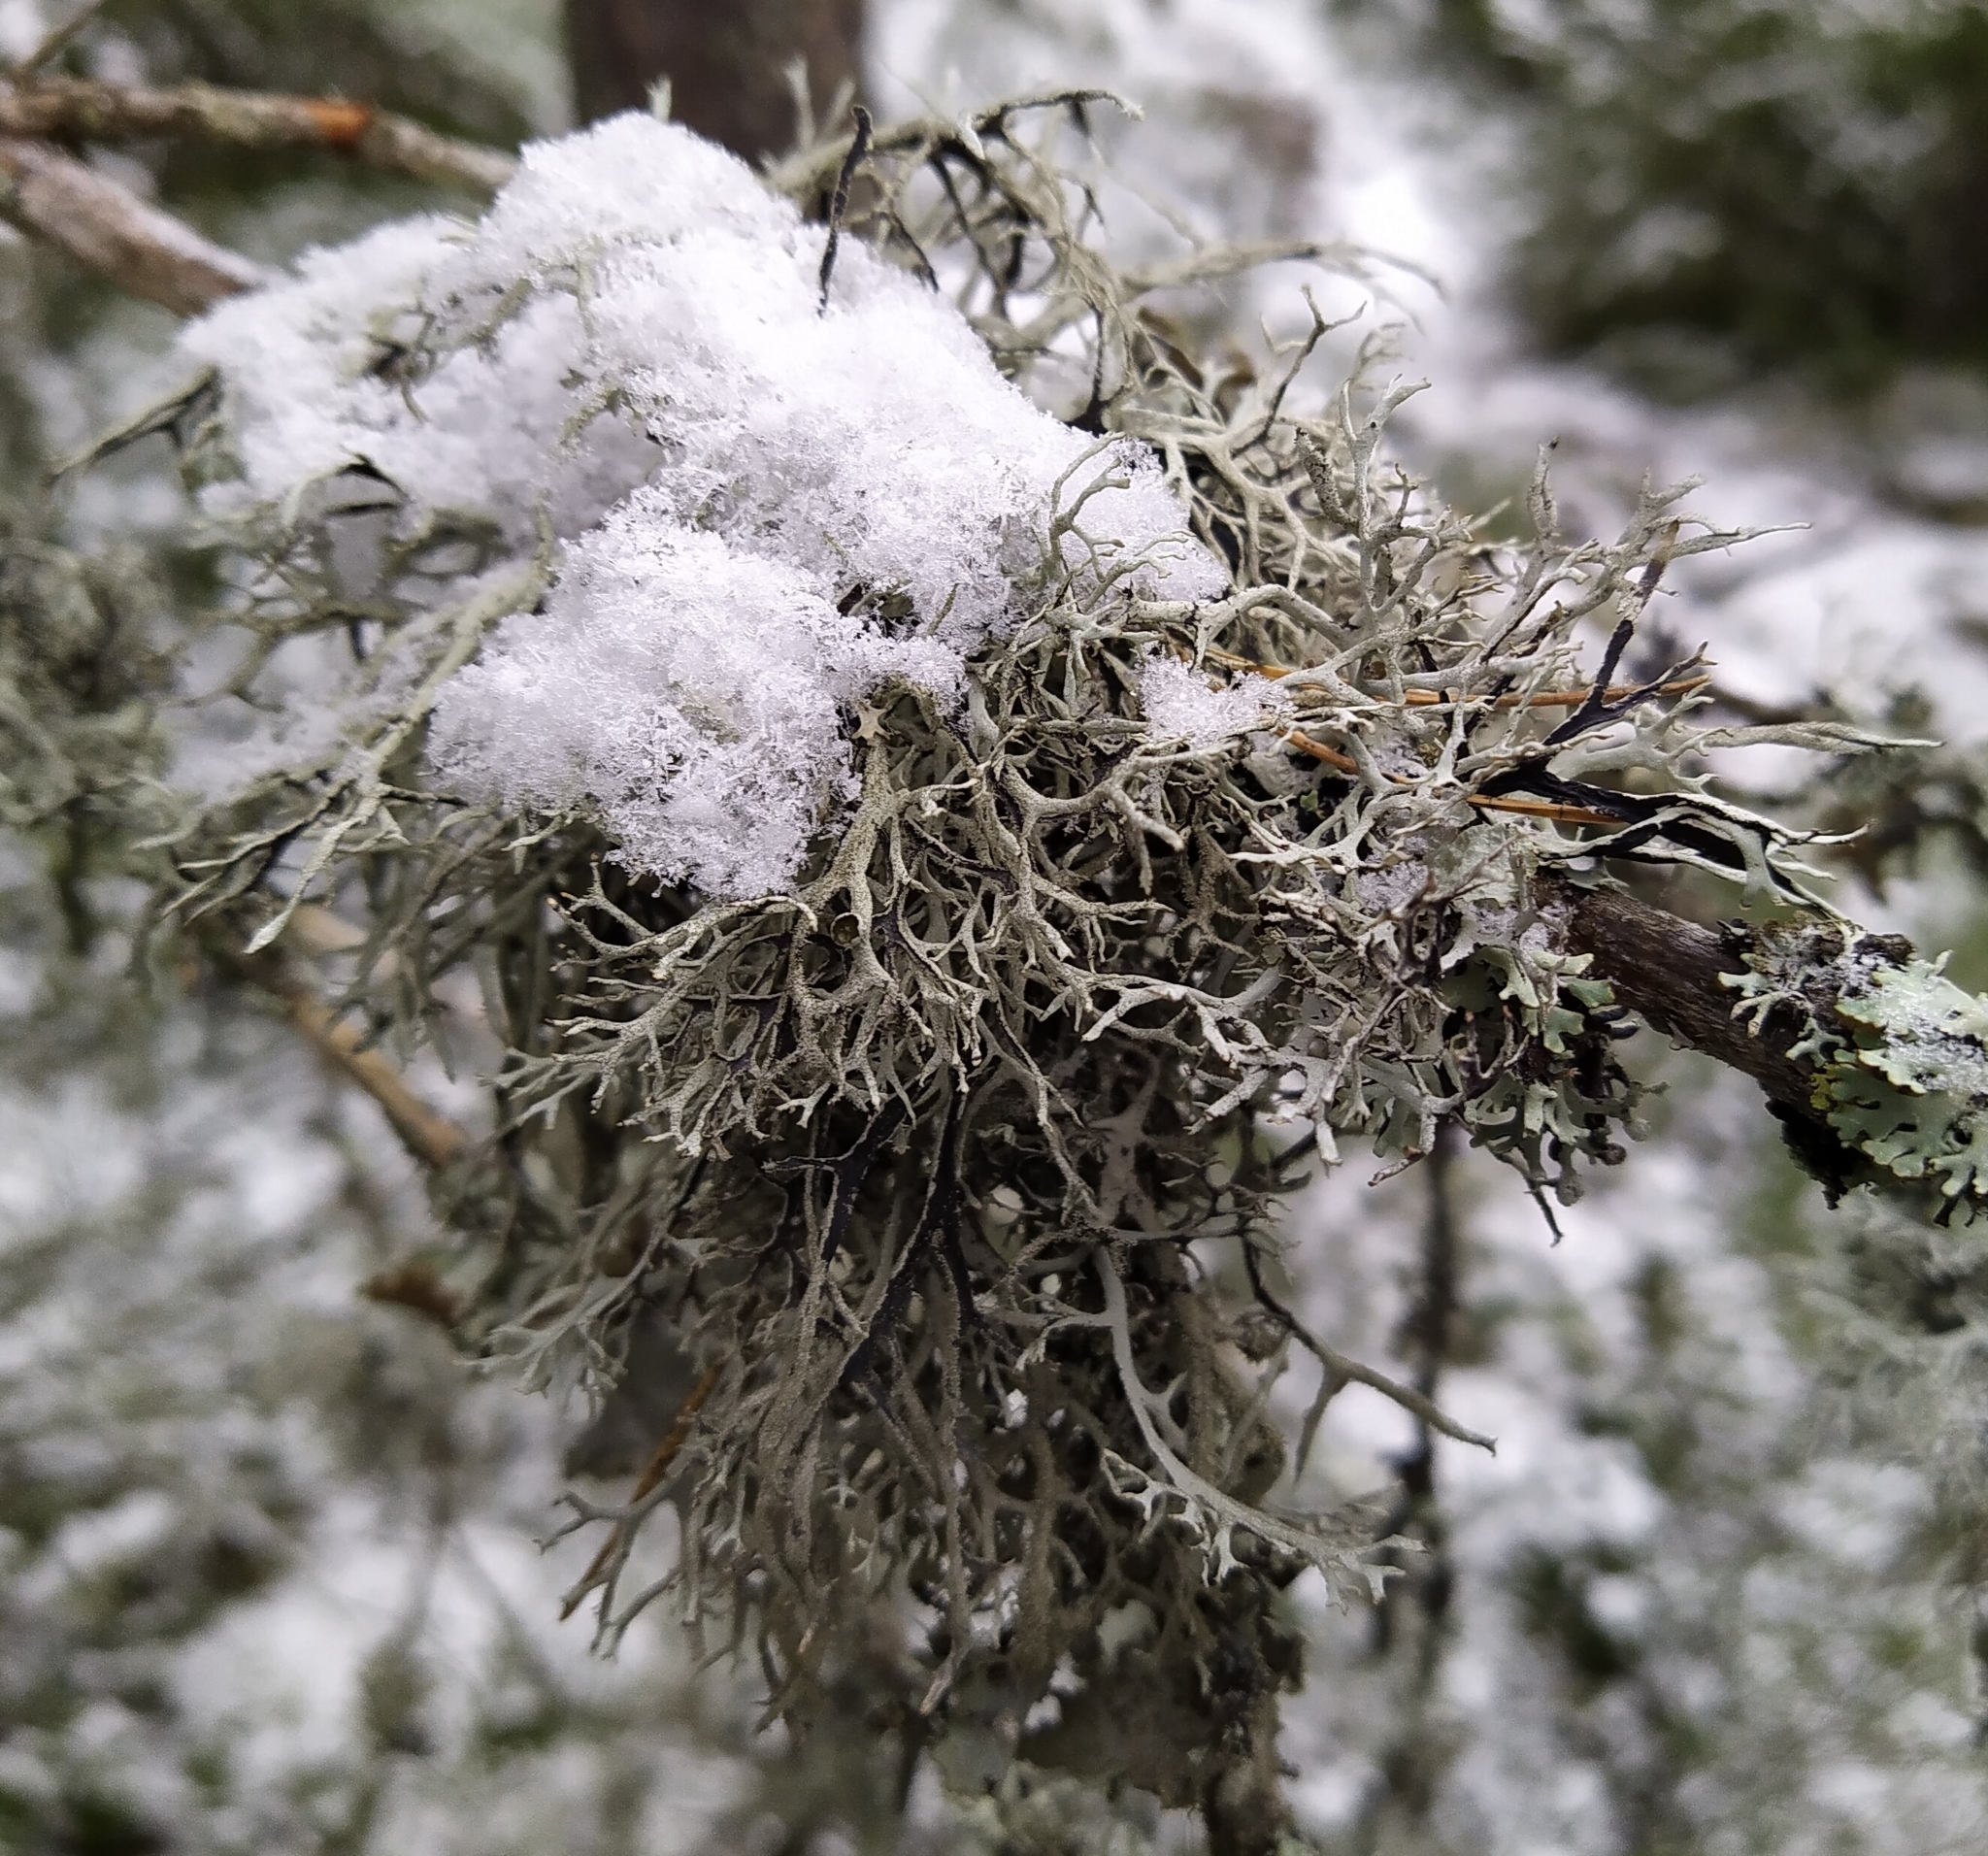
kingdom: Fungi
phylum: Ascomycota
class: Lecanoromycetes
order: Lecanorales
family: Parmeliaceae
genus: Pseudevernia
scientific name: Pseudevernia furfuracea
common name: Tree moss
